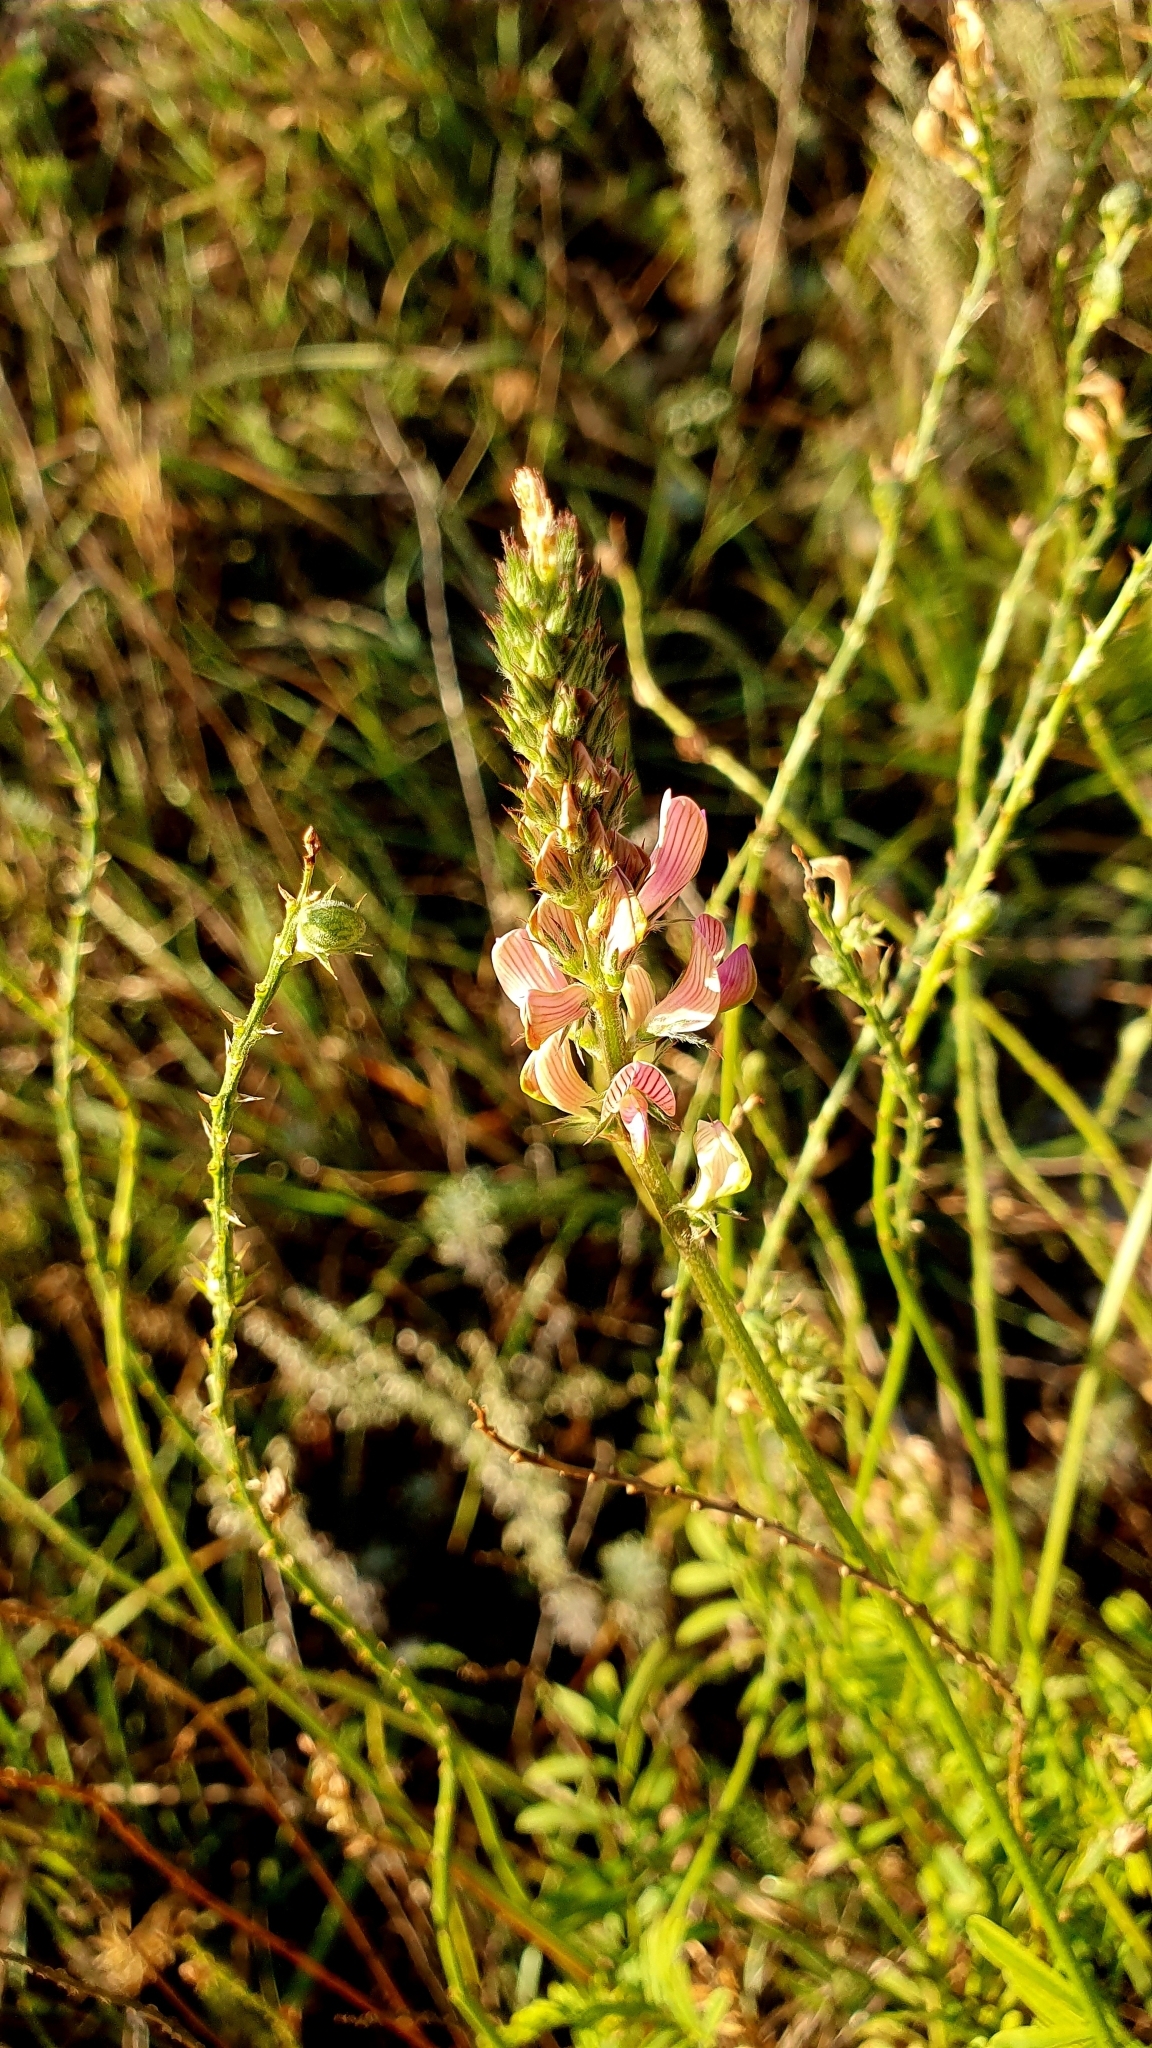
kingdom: Plantae
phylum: Tracheophyta
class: Magnoliopsida
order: Fabales
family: Fabaceae
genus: Onobrychis
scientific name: Onobrychis arenaria
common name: Sand esparcet
